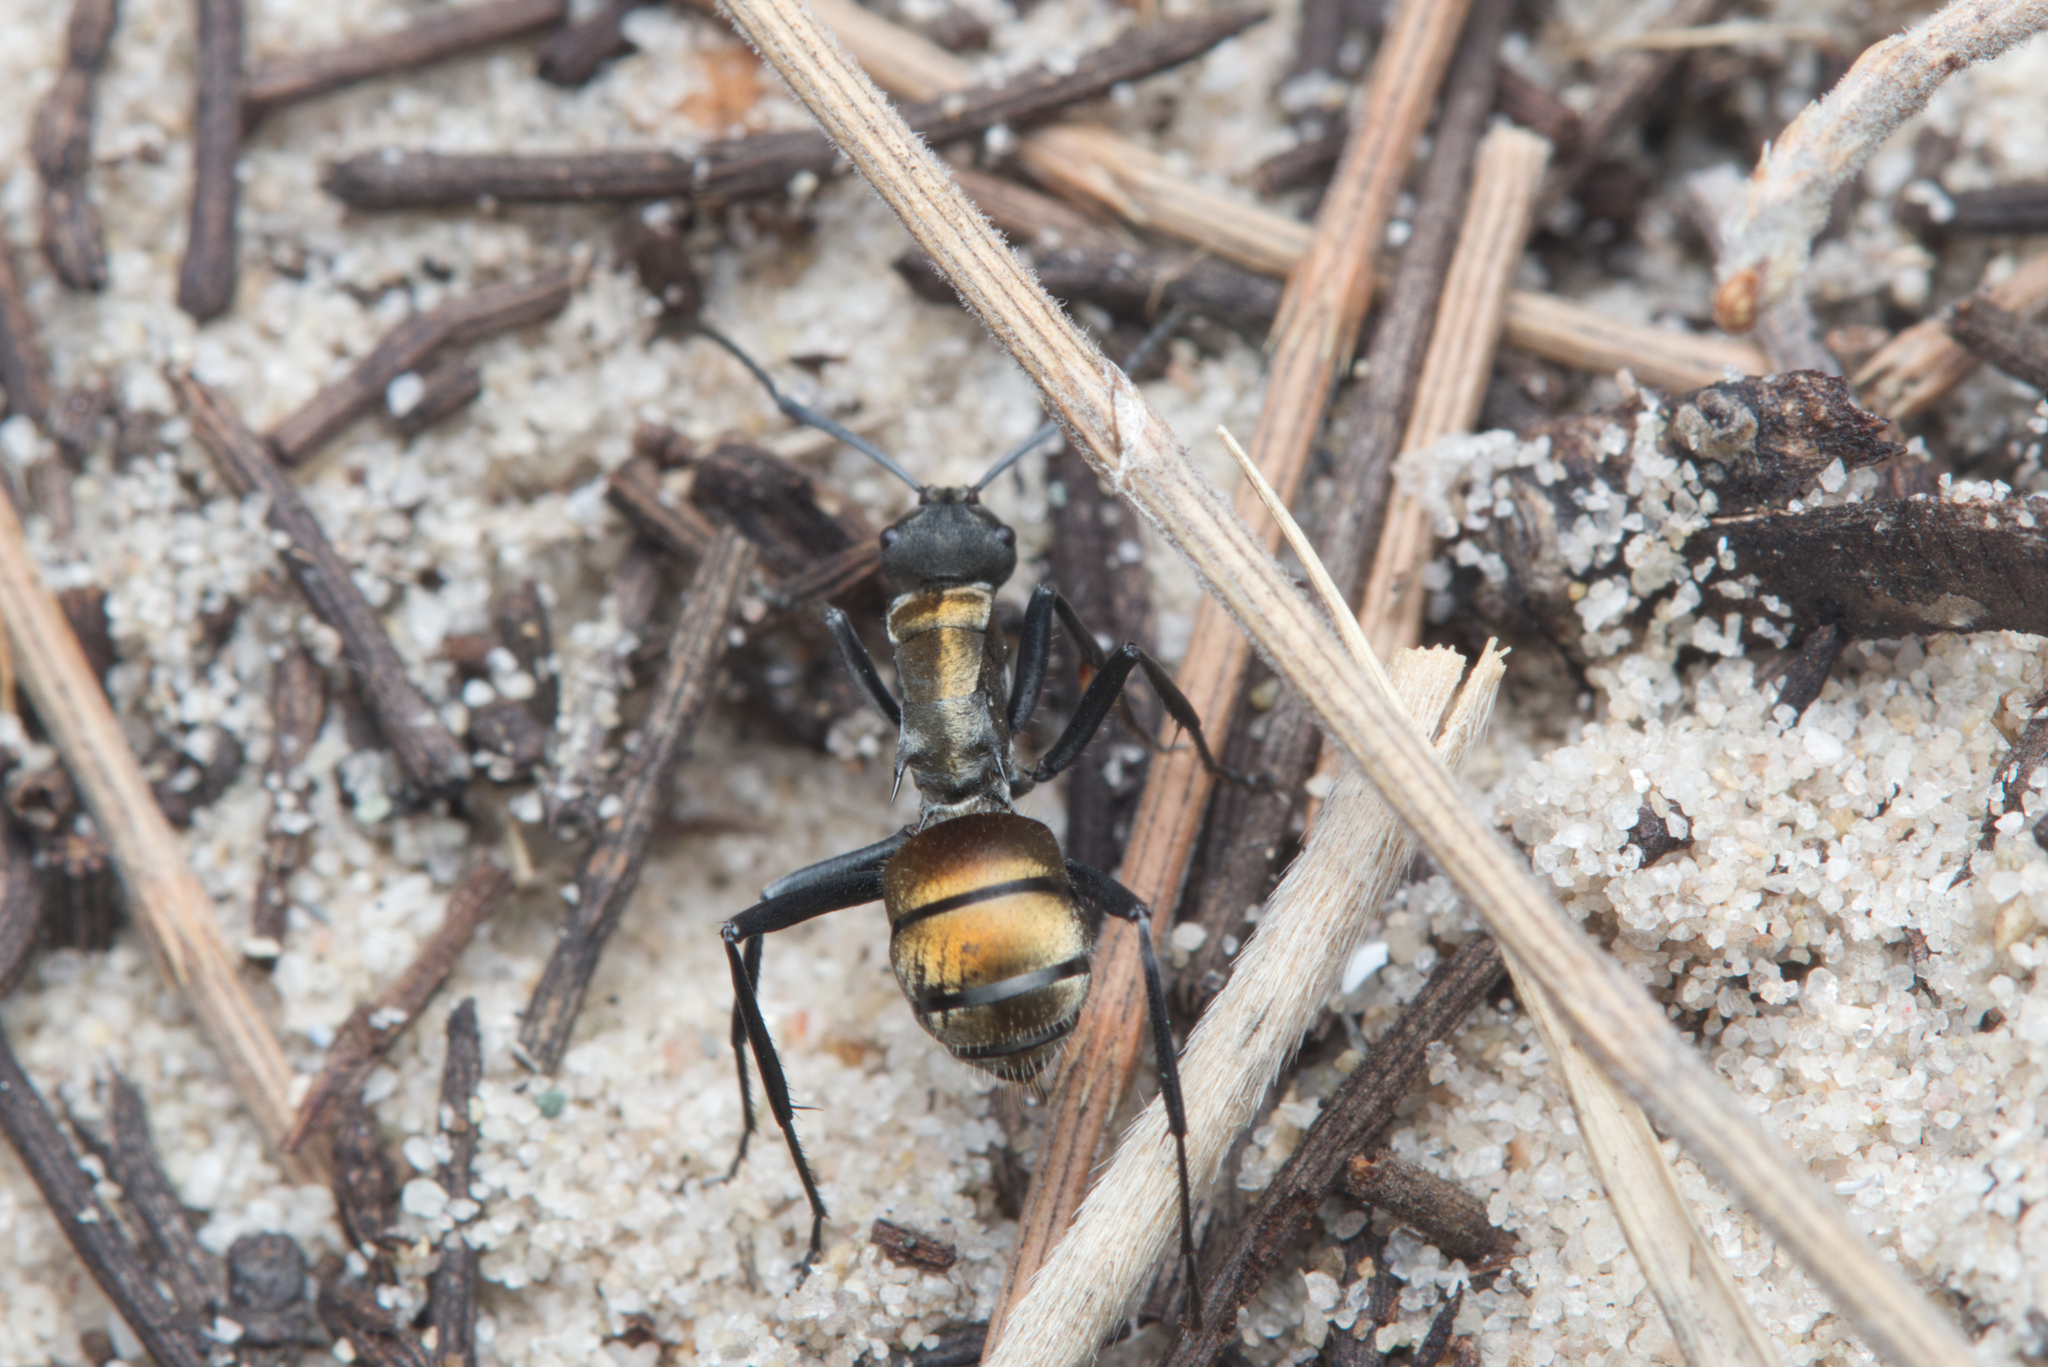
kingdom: Animalia
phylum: Arthropoda
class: Insecta
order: Hymenoptera
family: Formicidae
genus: Polyrhachis
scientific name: Polyrhachis ammon
